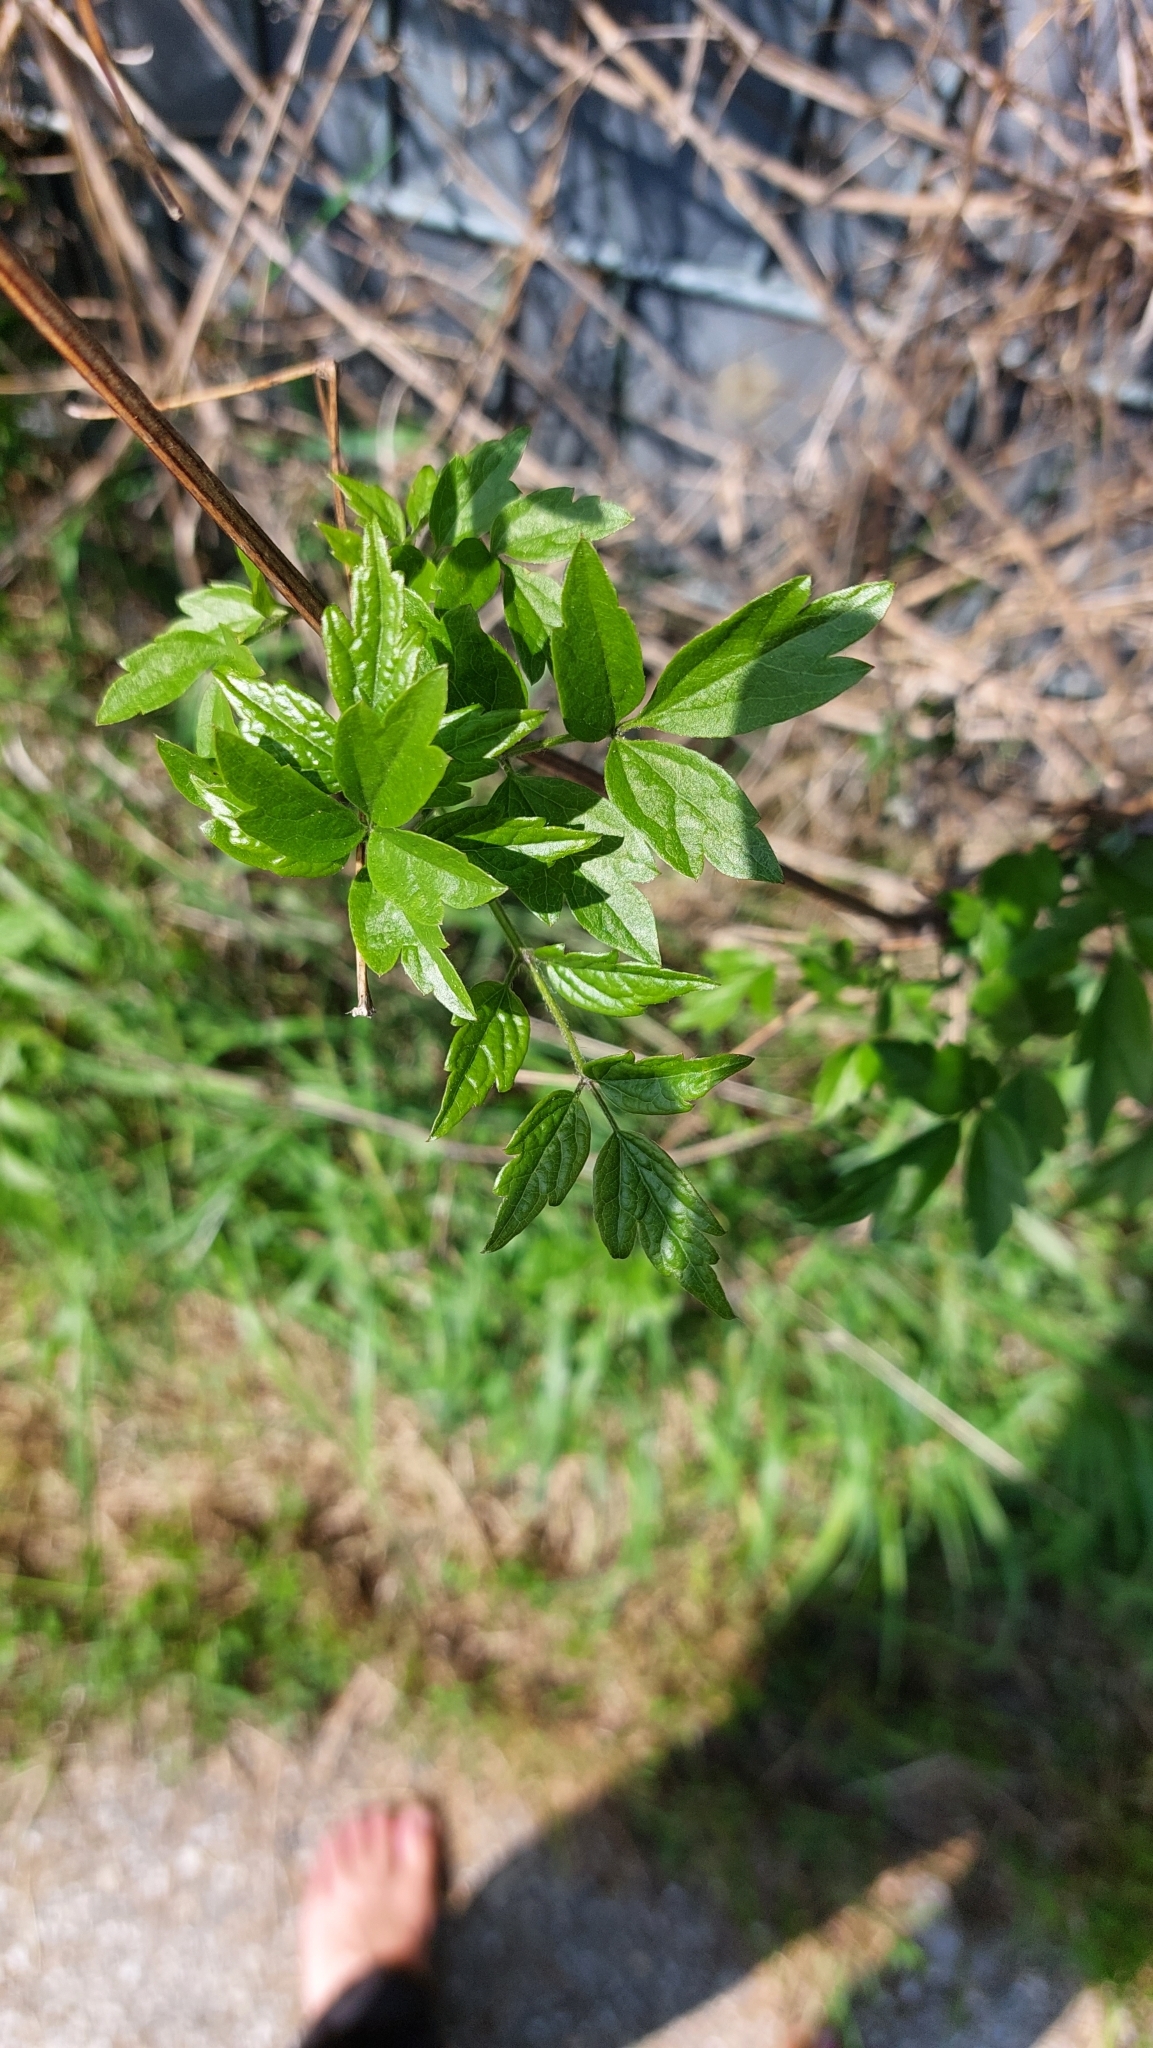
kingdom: Plantae
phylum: Tracheophyta
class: Magnoliopsida
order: Ranunculales
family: Ranunculaceae
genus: Clematis
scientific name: Clematis vitalba
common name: Evergreen clematis
